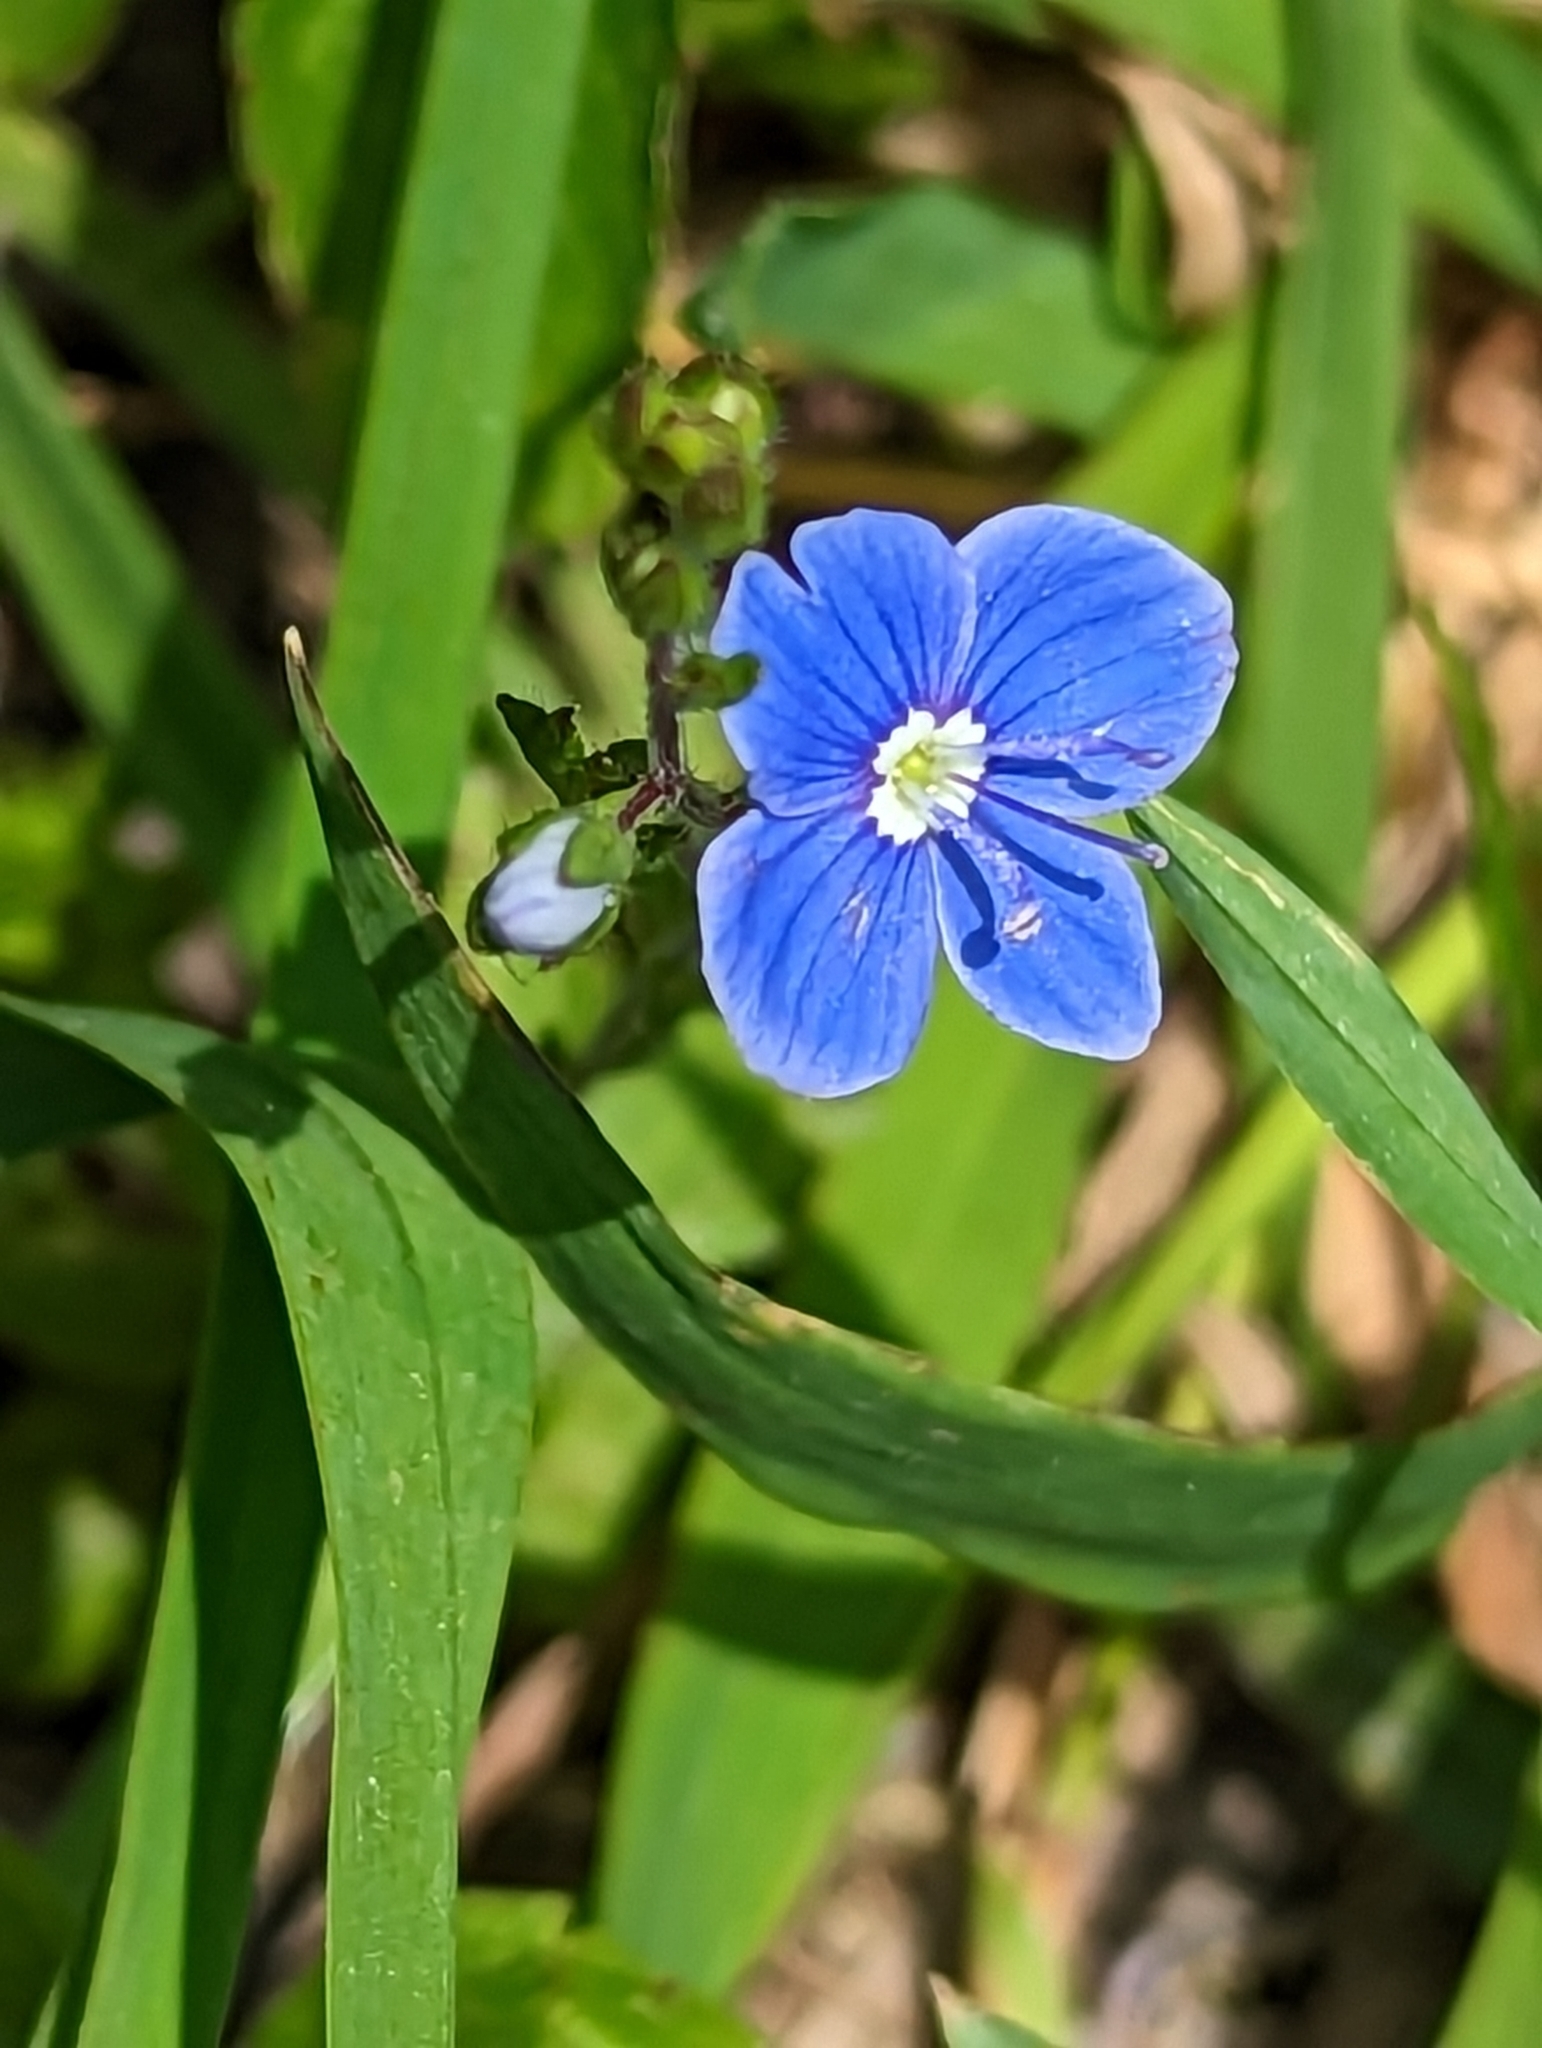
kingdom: Plantae
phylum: Tracheophyta
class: Magnoliopsida
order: Lamiales
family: Plantaginaceae
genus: Veronica
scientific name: Veronica chamaedrys
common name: Germander speedwell
